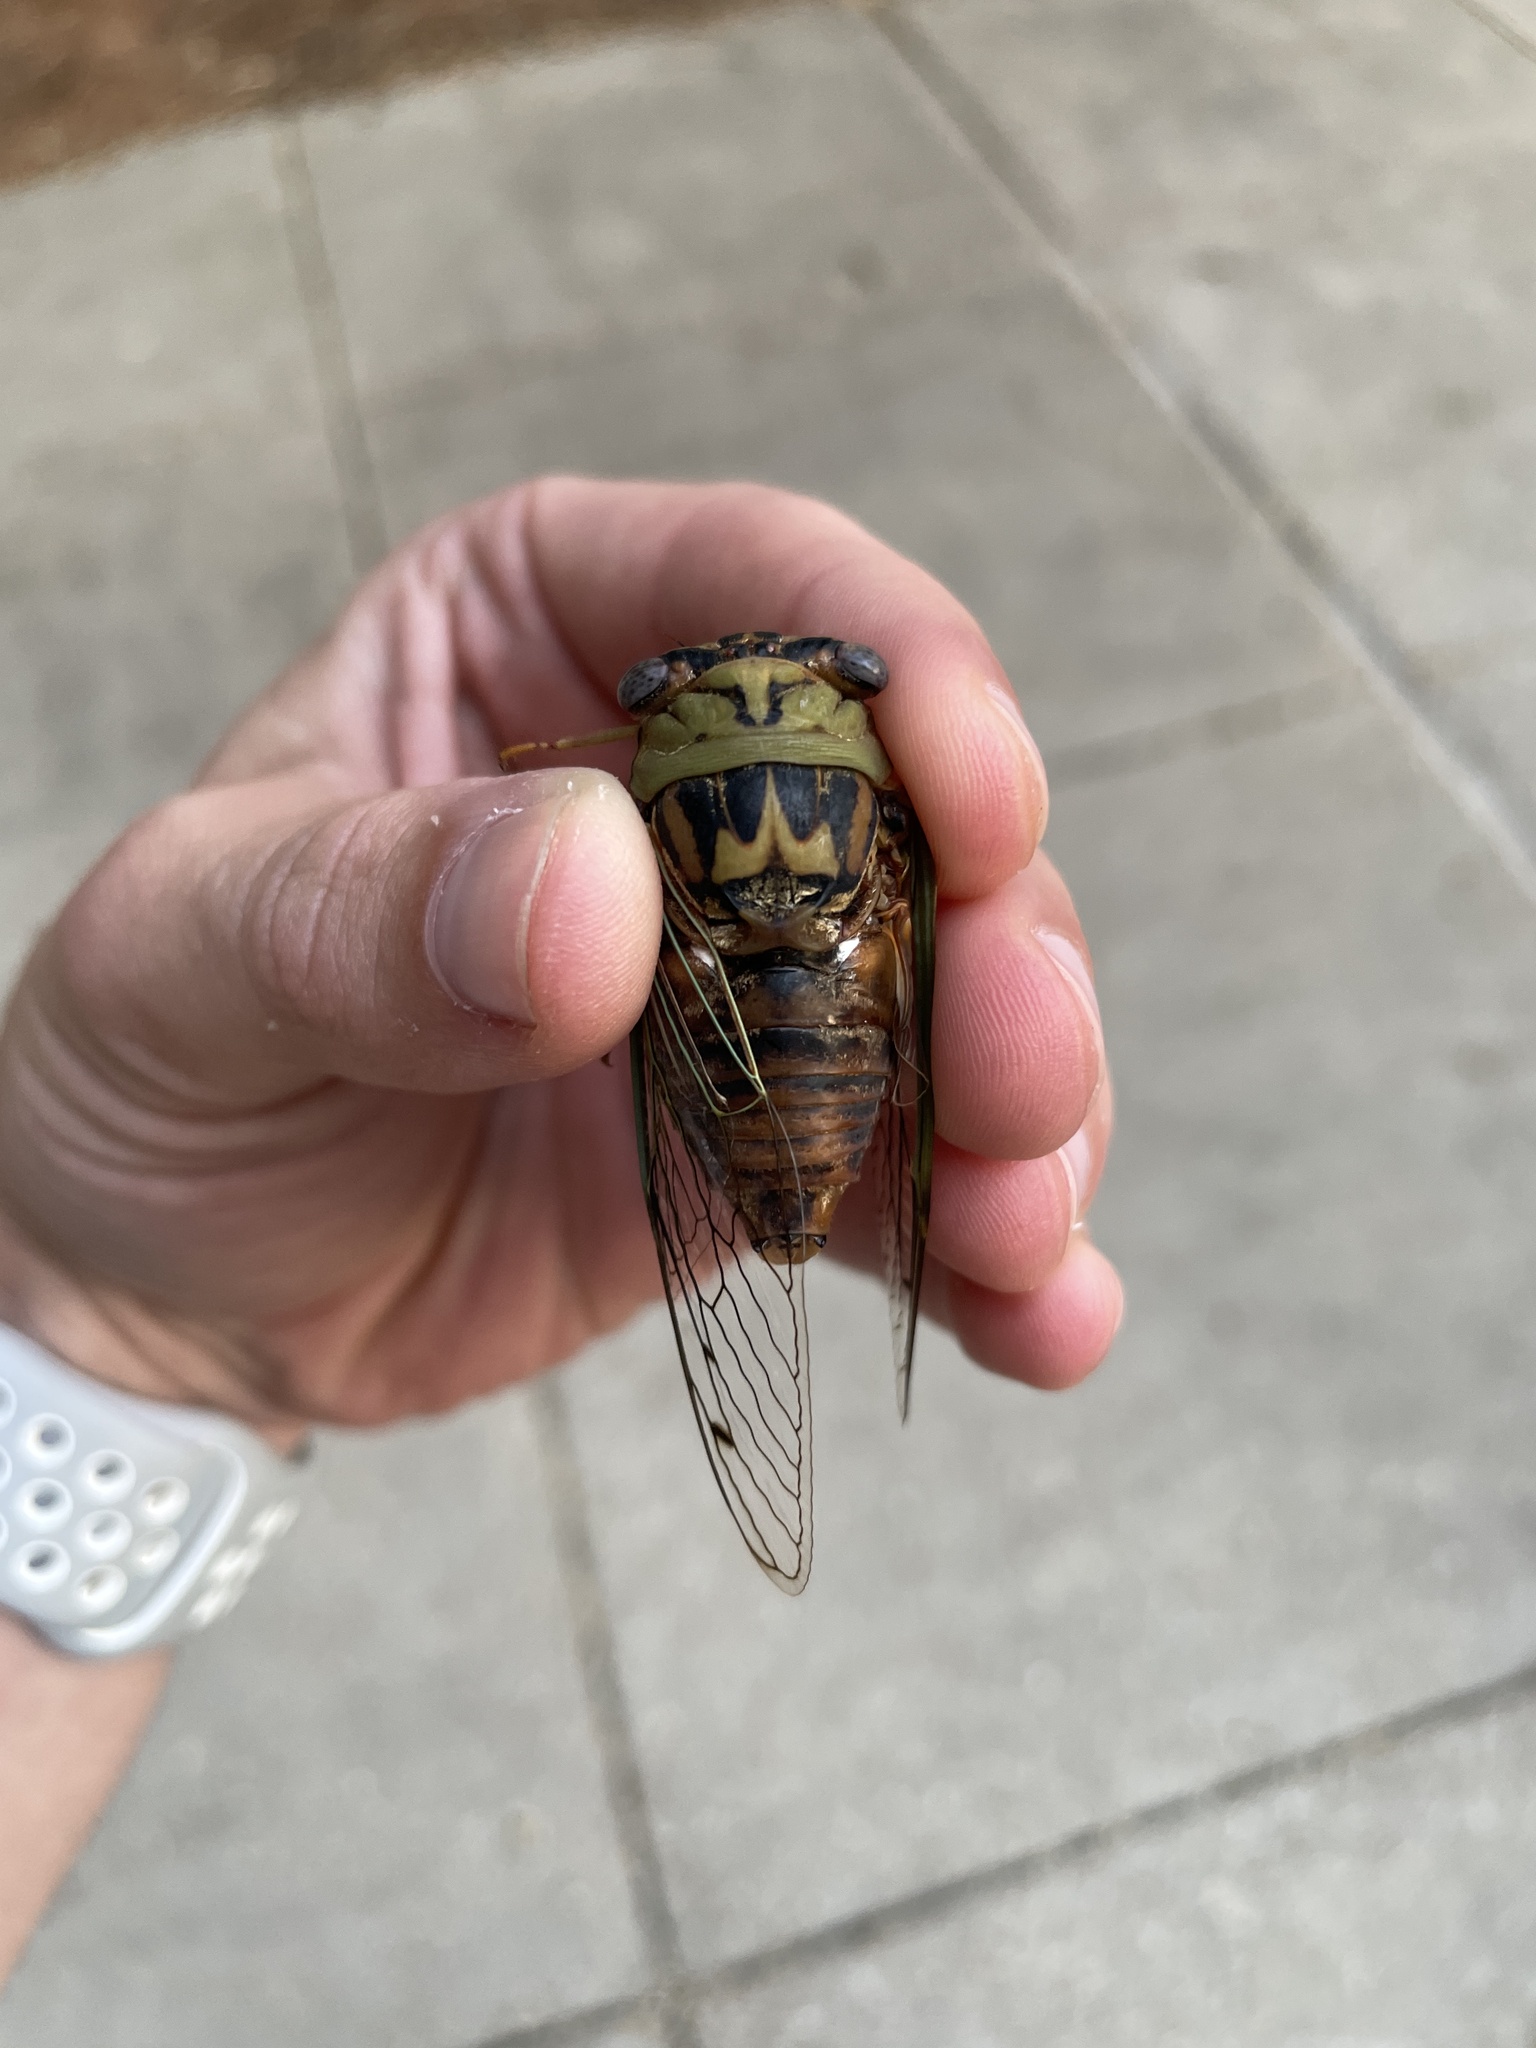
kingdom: Animalia
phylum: Arthropoda
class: Insecta
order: Hemiptera
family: Cicadidae
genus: Megatibicen
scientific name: Megatibicen resh
